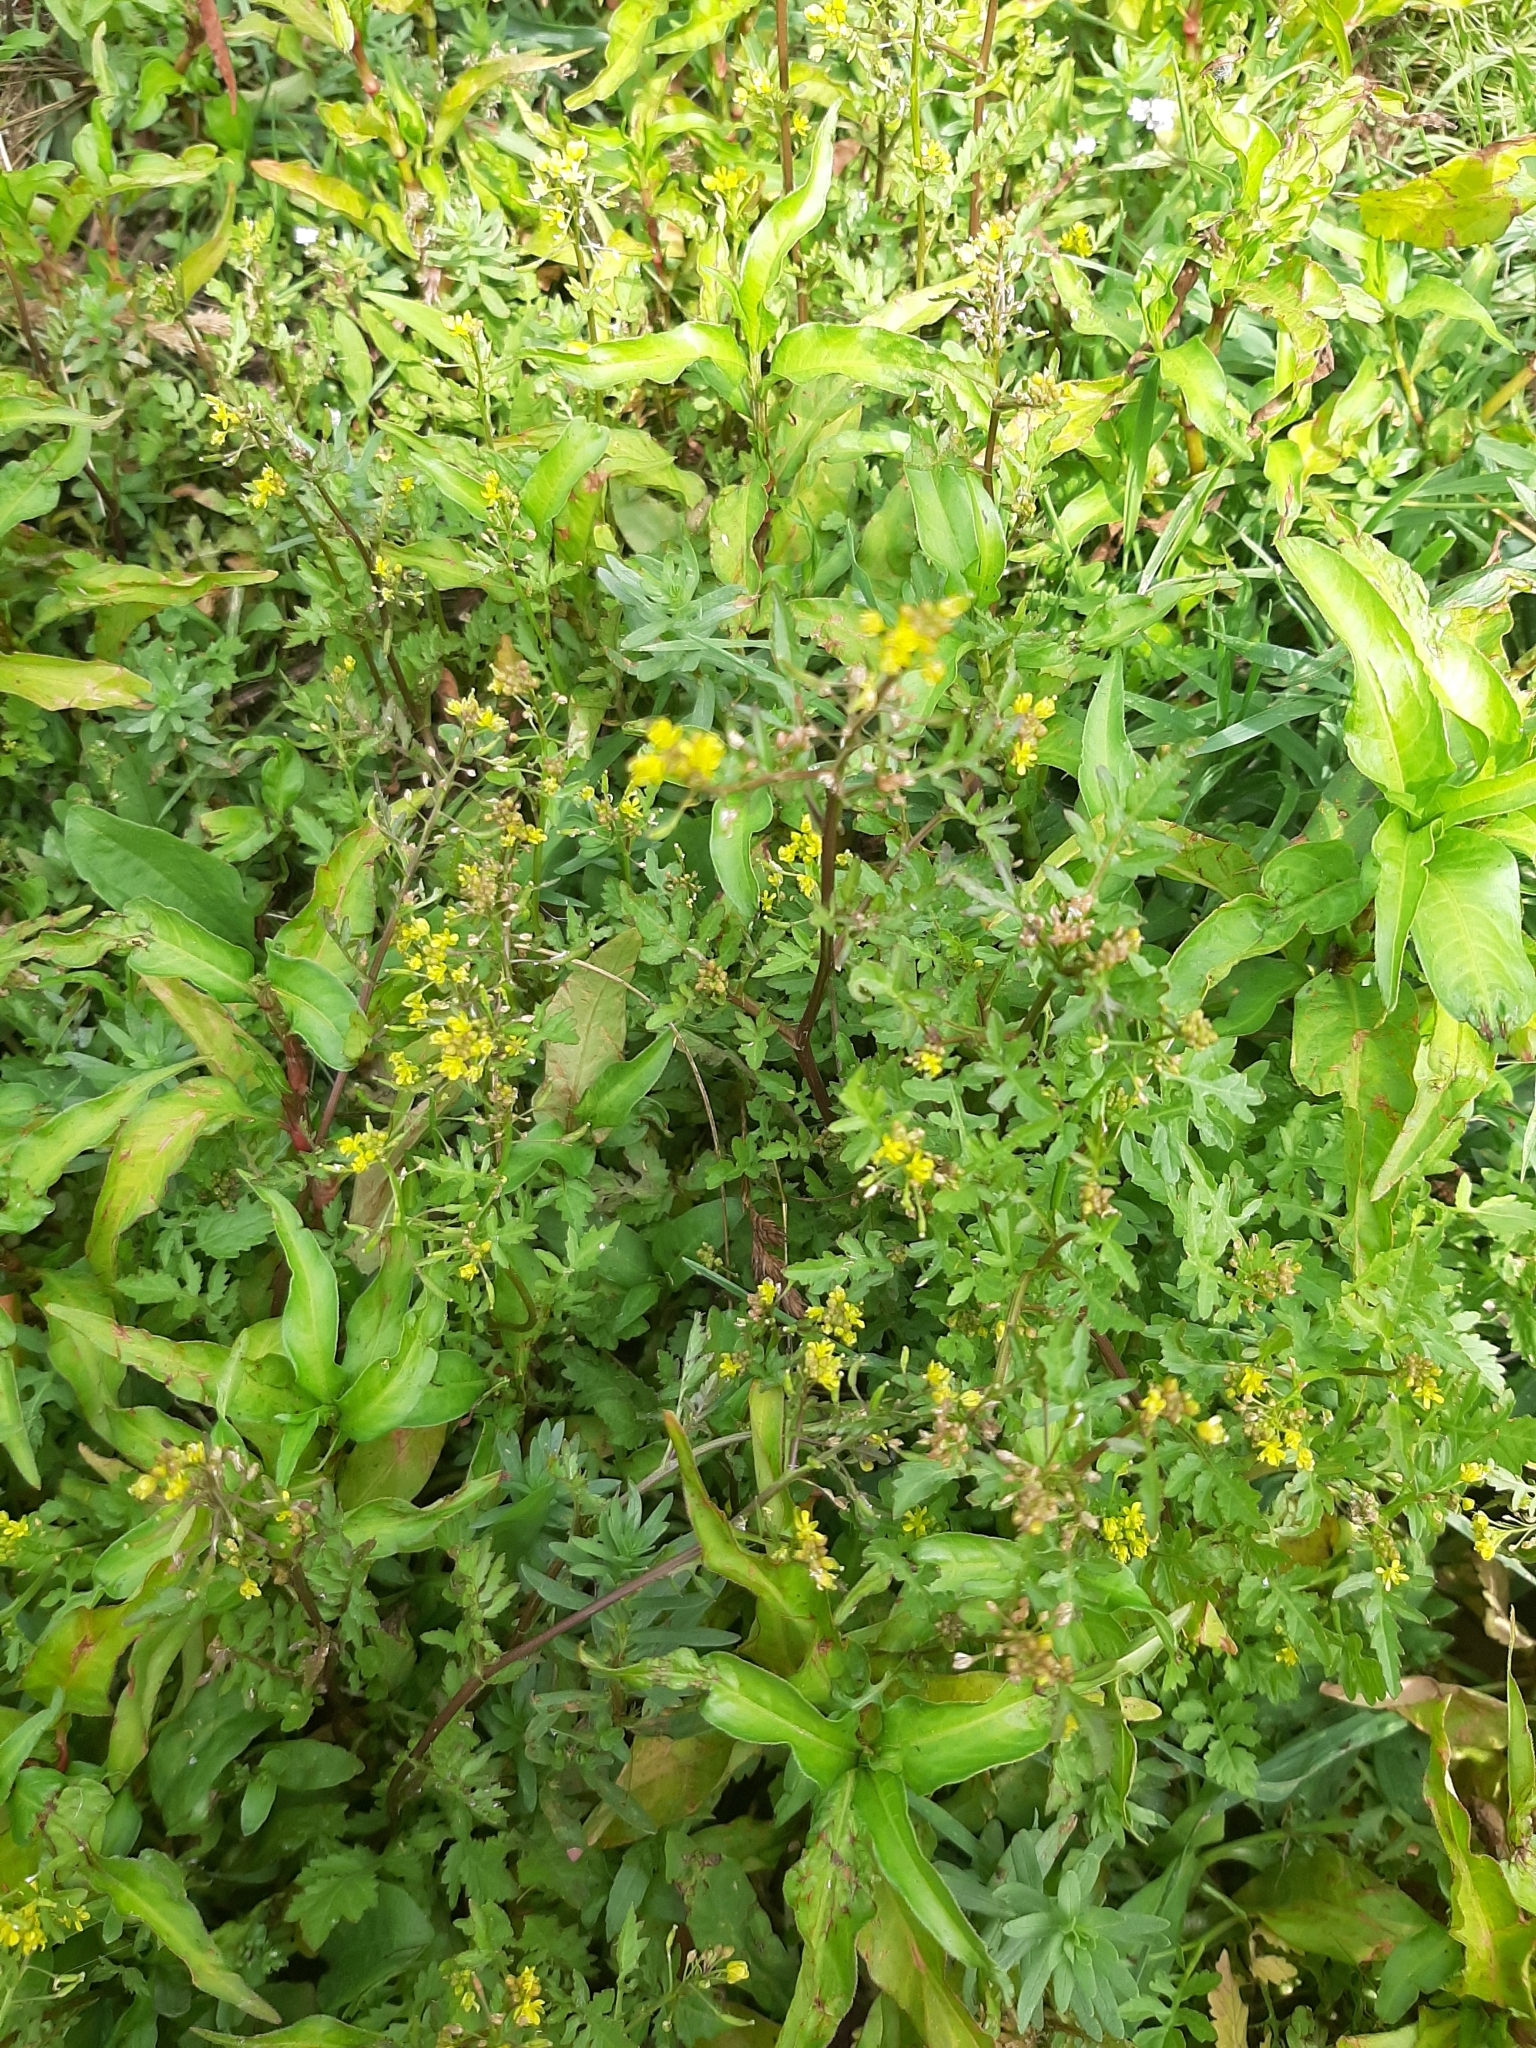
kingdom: Plantae
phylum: Tracheophyta
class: Magnoliopsida
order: Brassicales
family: Brassicaceae
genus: Rorippa
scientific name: Rorippa palustris
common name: Marsh yellow-cress
